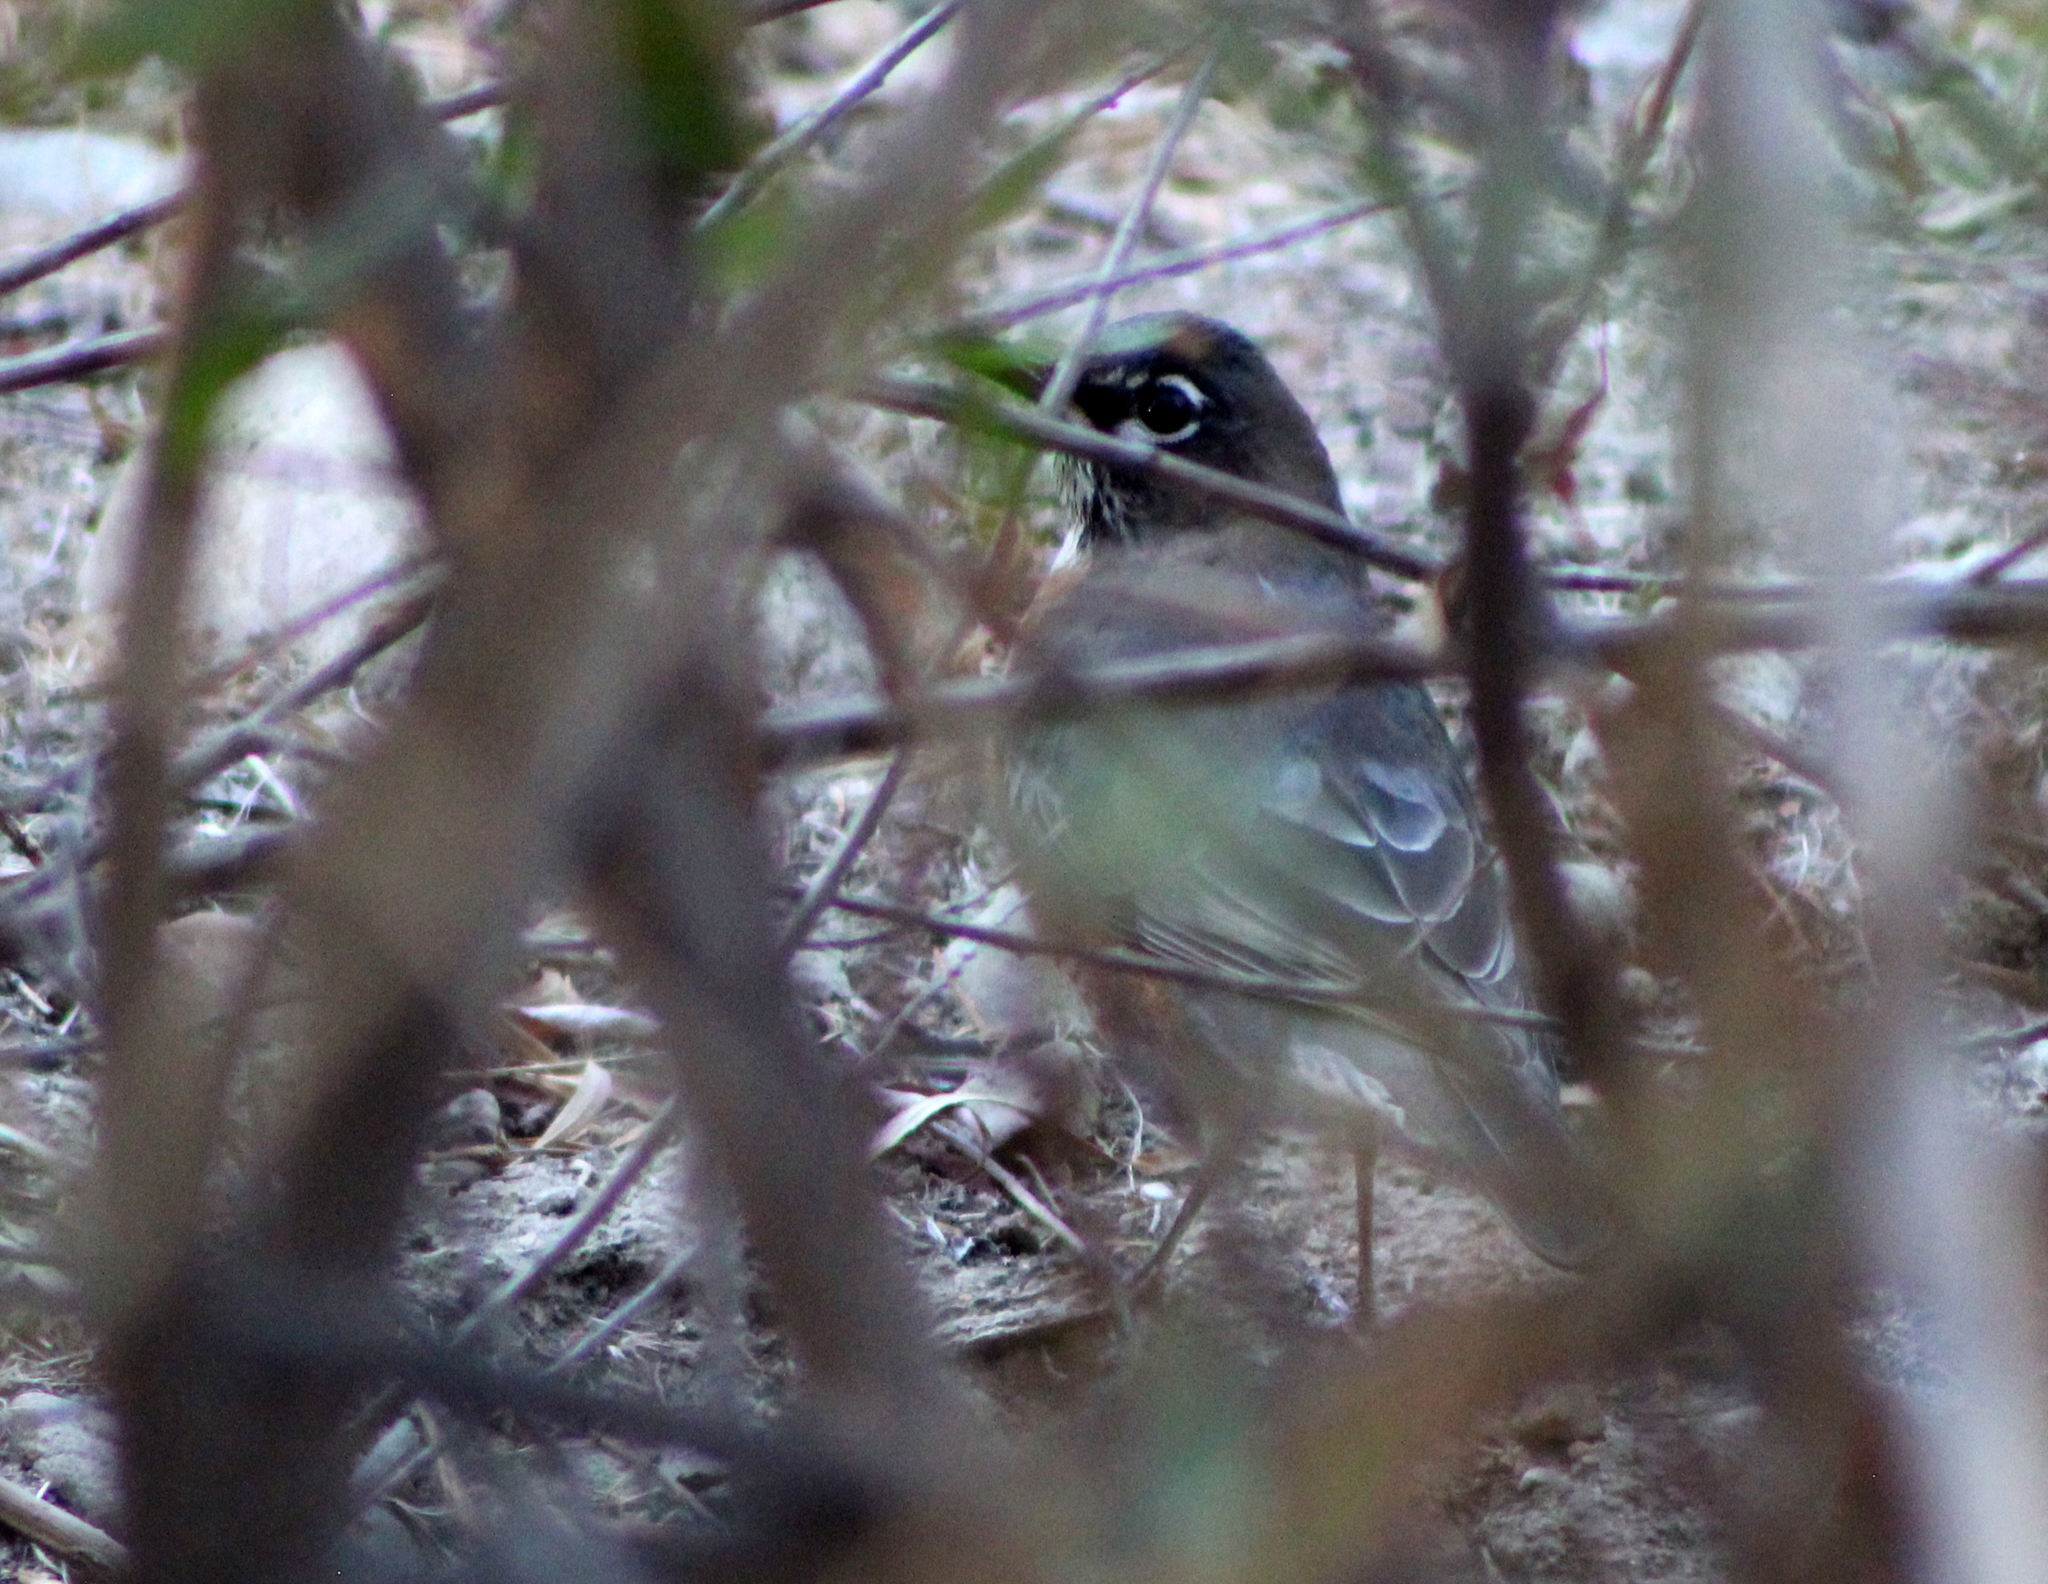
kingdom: Animalia
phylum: Chordata
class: Aves
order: Passeriformes
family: Turdidae
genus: Turdus
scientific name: Turdus migratorius
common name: American robin
